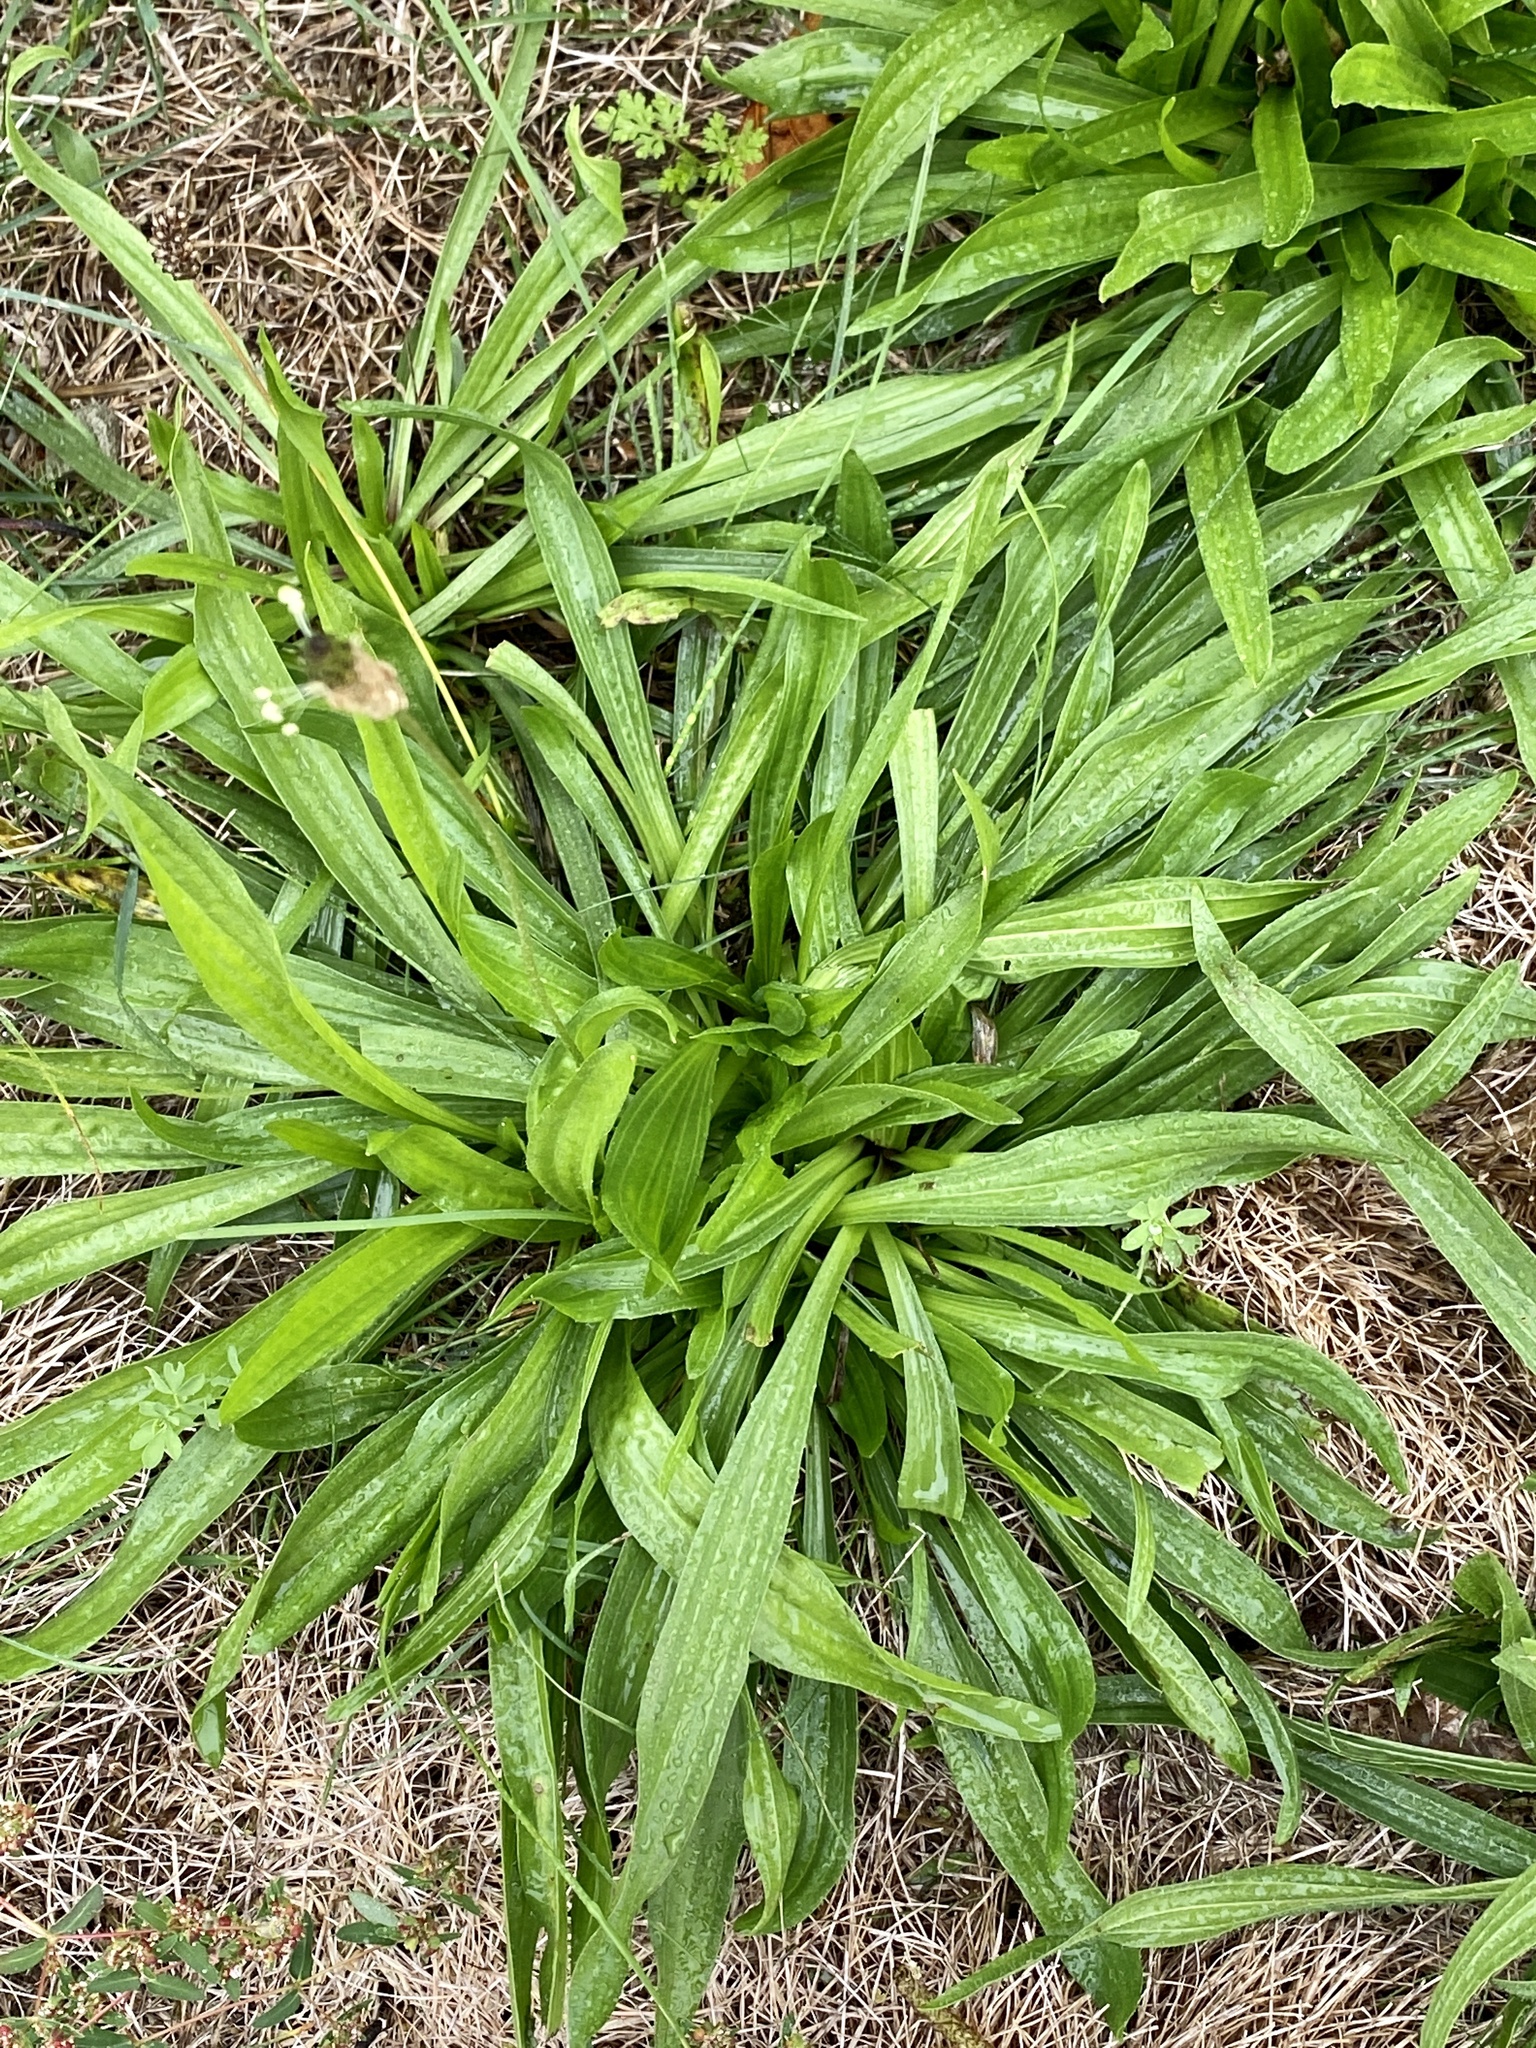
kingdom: Plantae
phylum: Tracheophyta
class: Magnoliopsida
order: Lamiales
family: Plantaginaceae
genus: Plantago
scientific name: Plantago lanceolata
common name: Ribwort plantain
